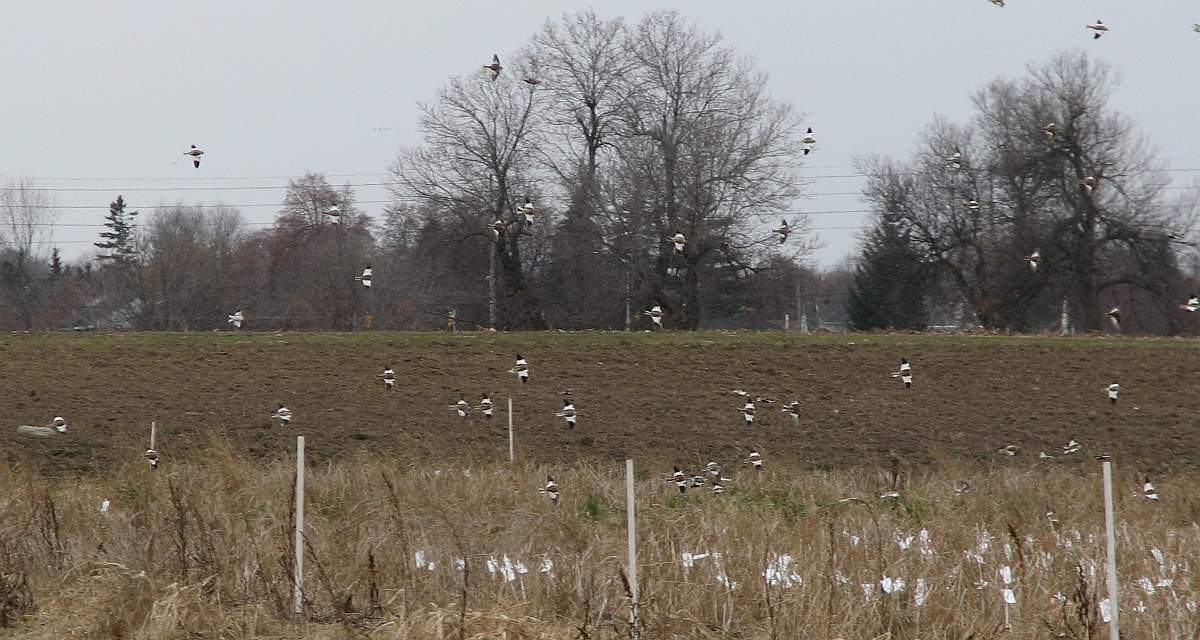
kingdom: Animalia
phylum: Chordata
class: Aves
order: Passeriformes
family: Calcariidae
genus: Plectrophenax
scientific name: Plectrophenax nivalis
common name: Snow bunting
